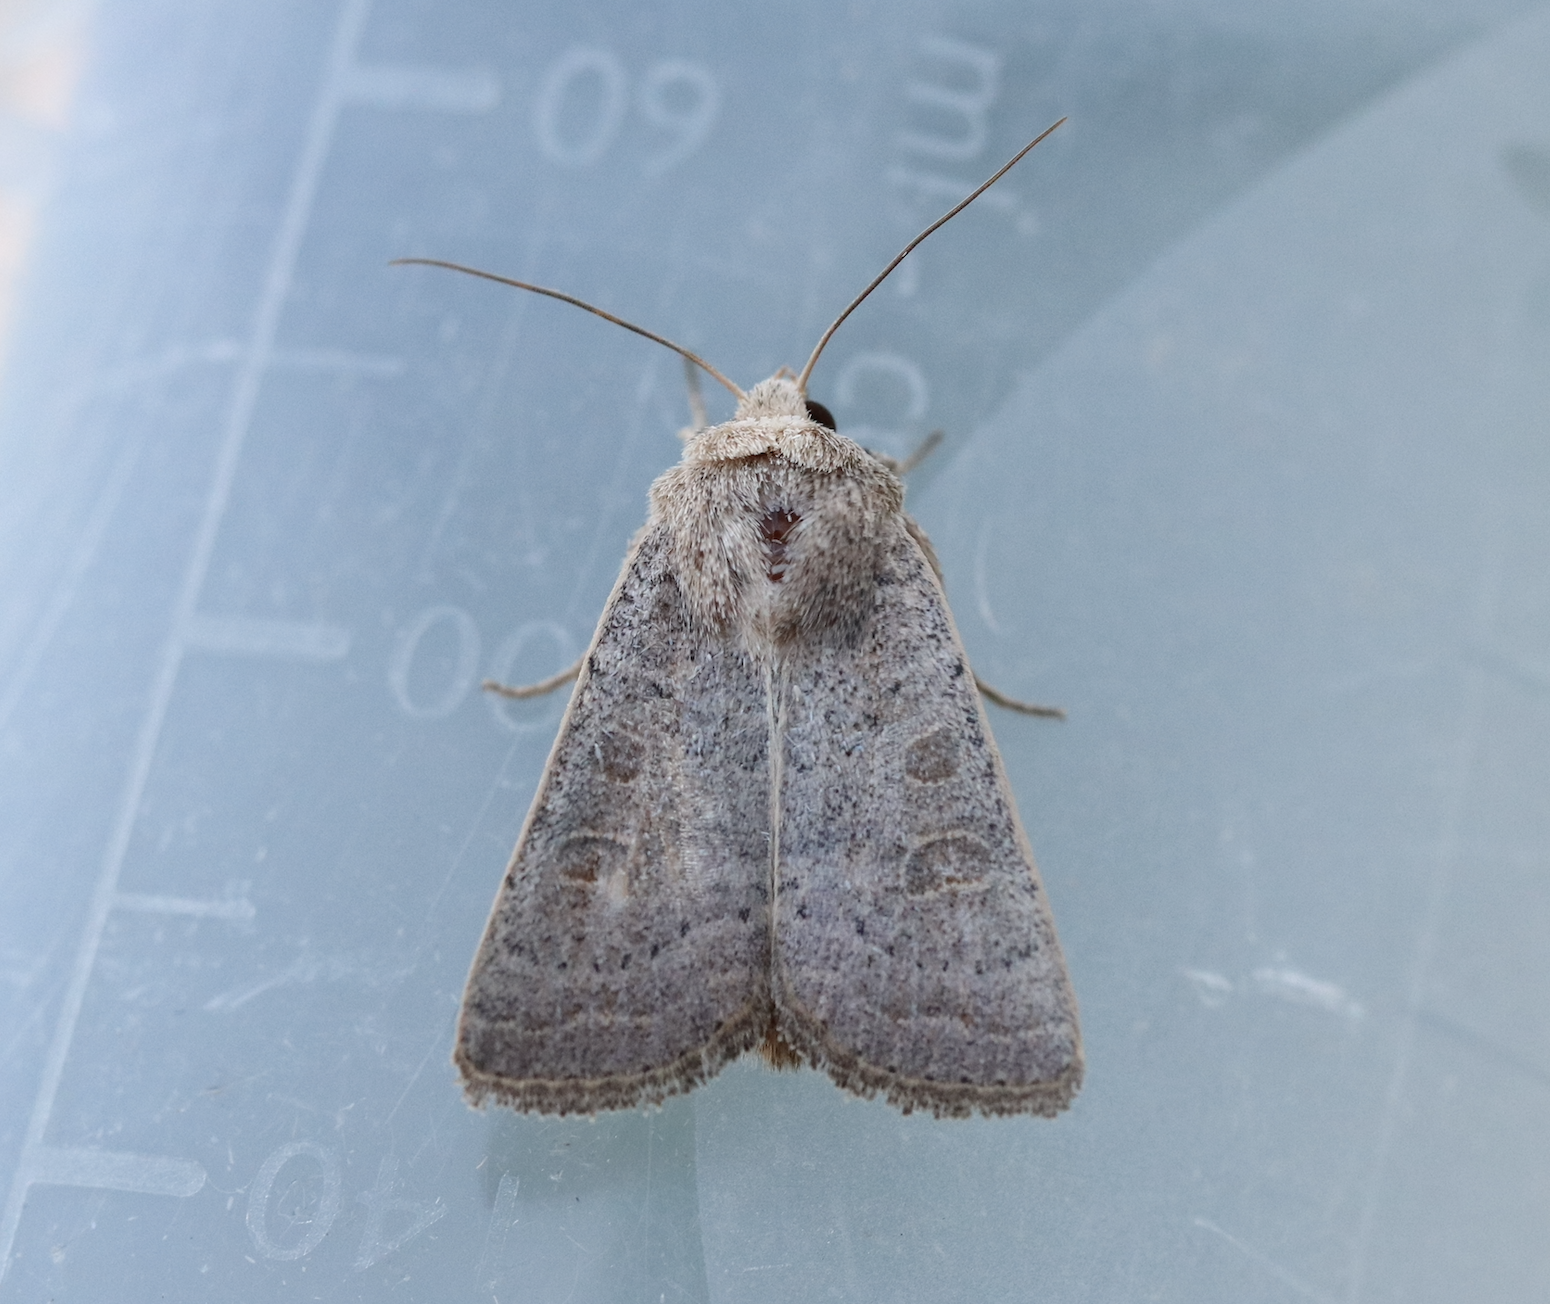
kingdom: Animalia
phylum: Arthropoda
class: Insecta
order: Lepidoptera
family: Noctuidae
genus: Hoplodrina
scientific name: Hoplodrina ambigua
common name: Vine's rustic
